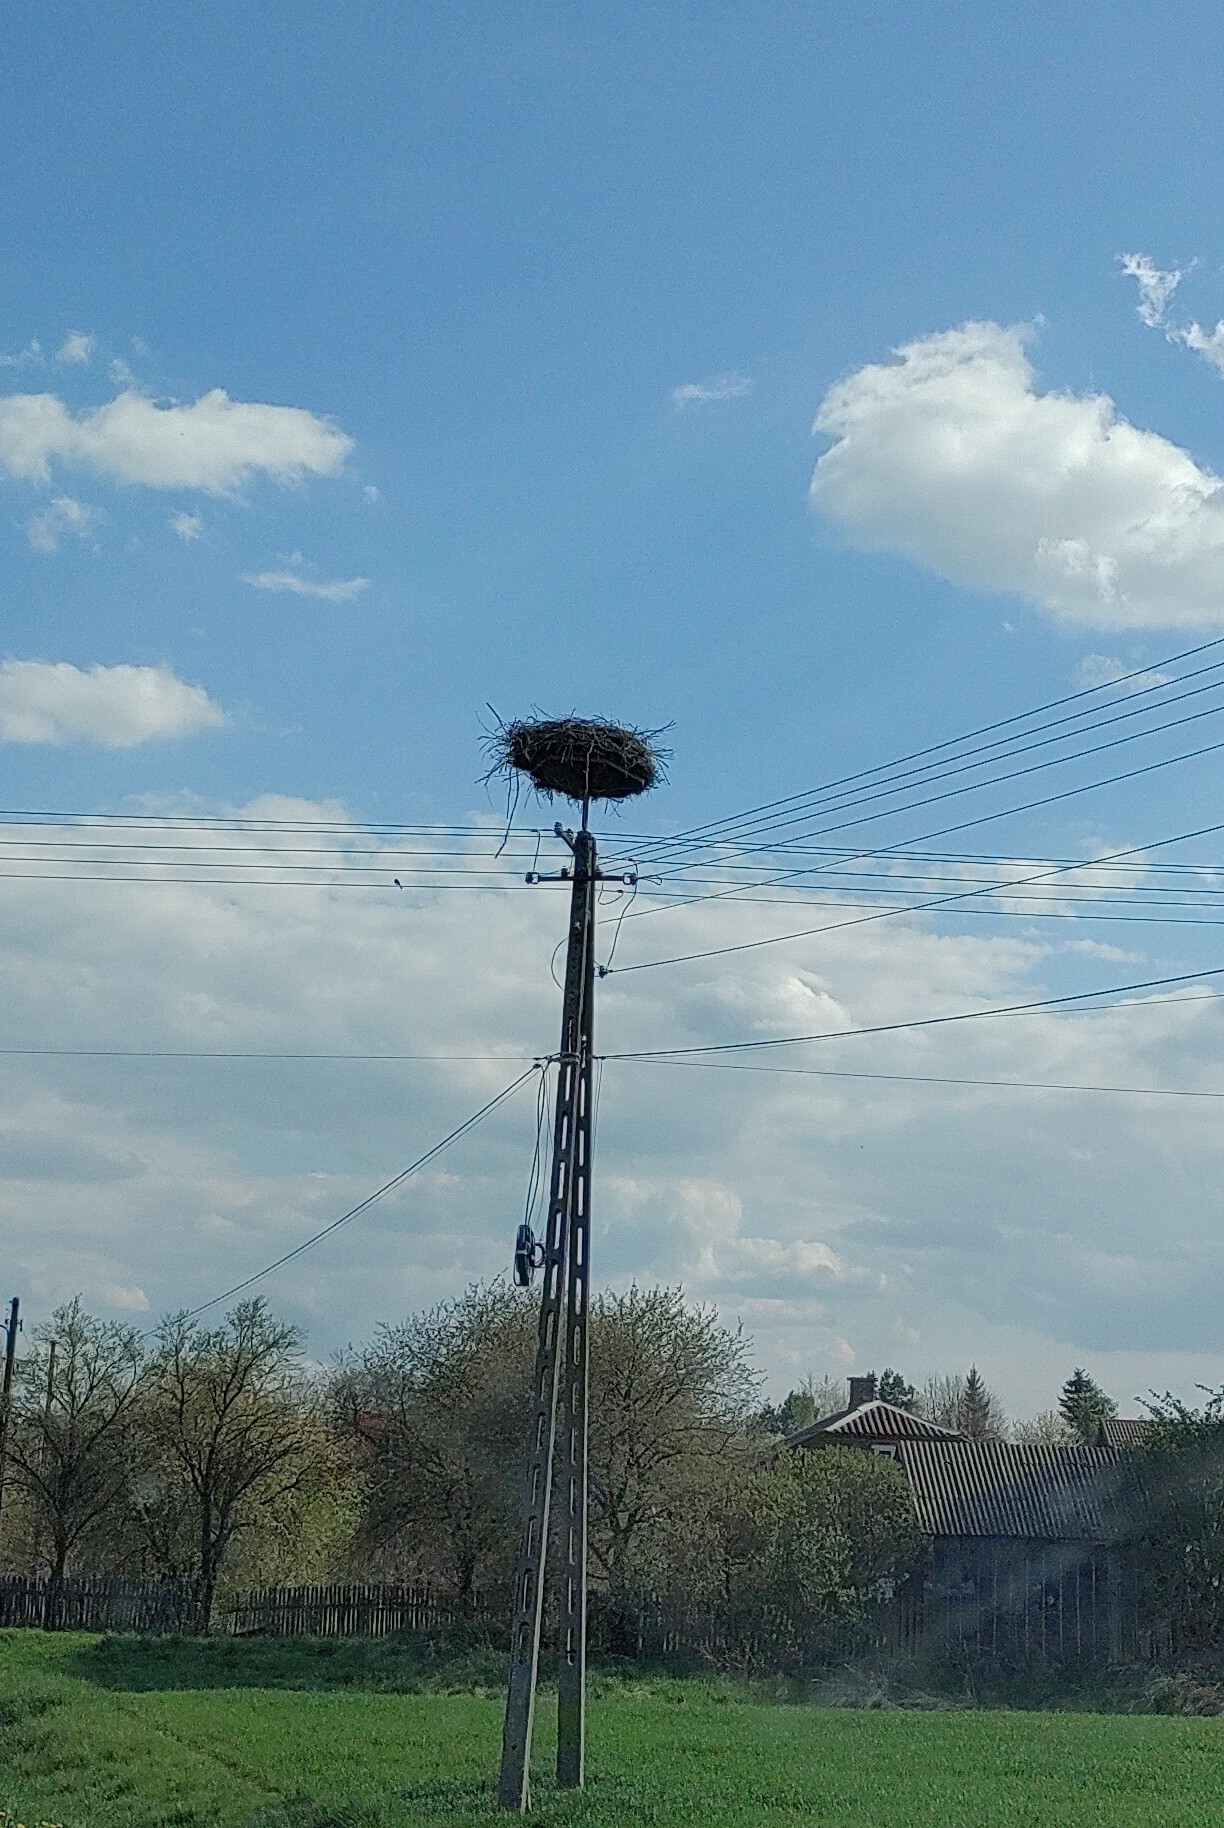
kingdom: Animalia
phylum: Chordata
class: Aves
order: Ciconiiformes
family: Ciconiidae
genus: Ciconia
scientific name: Ciconia ciconia
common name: White stork
